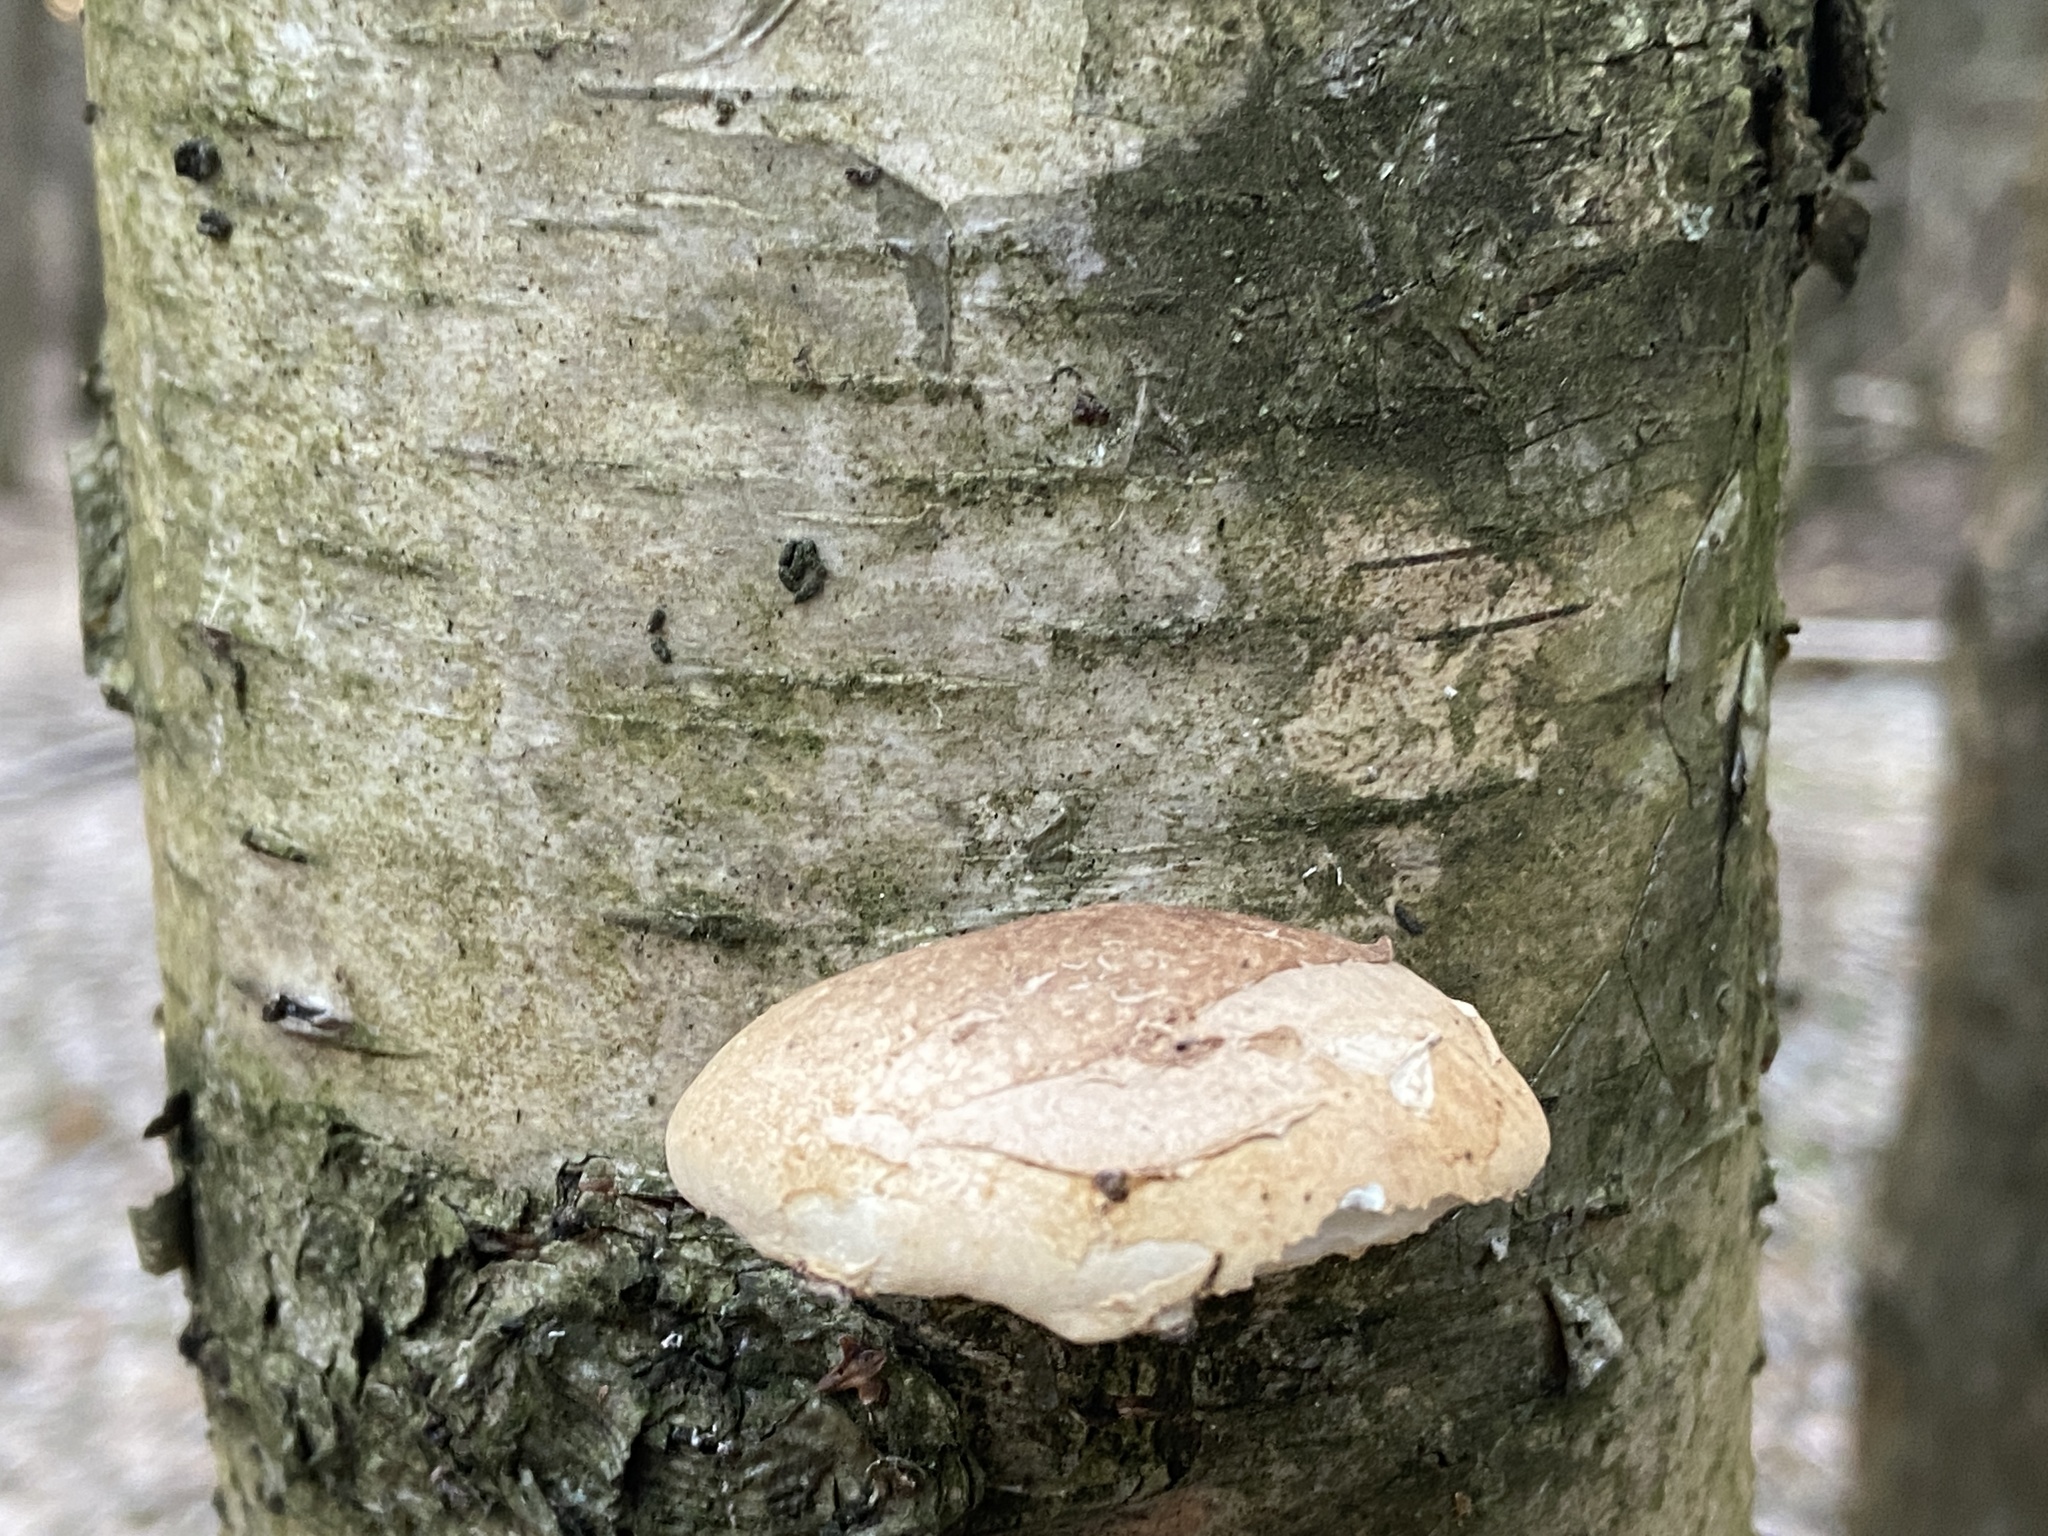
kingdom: Fungi
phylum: Basidiomycota
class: Agaricomycetes
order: Polyporales
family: Fomitopsidaceae
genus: Fomitopsis
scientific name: Fomitopsis betulina
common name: Birch polypore
